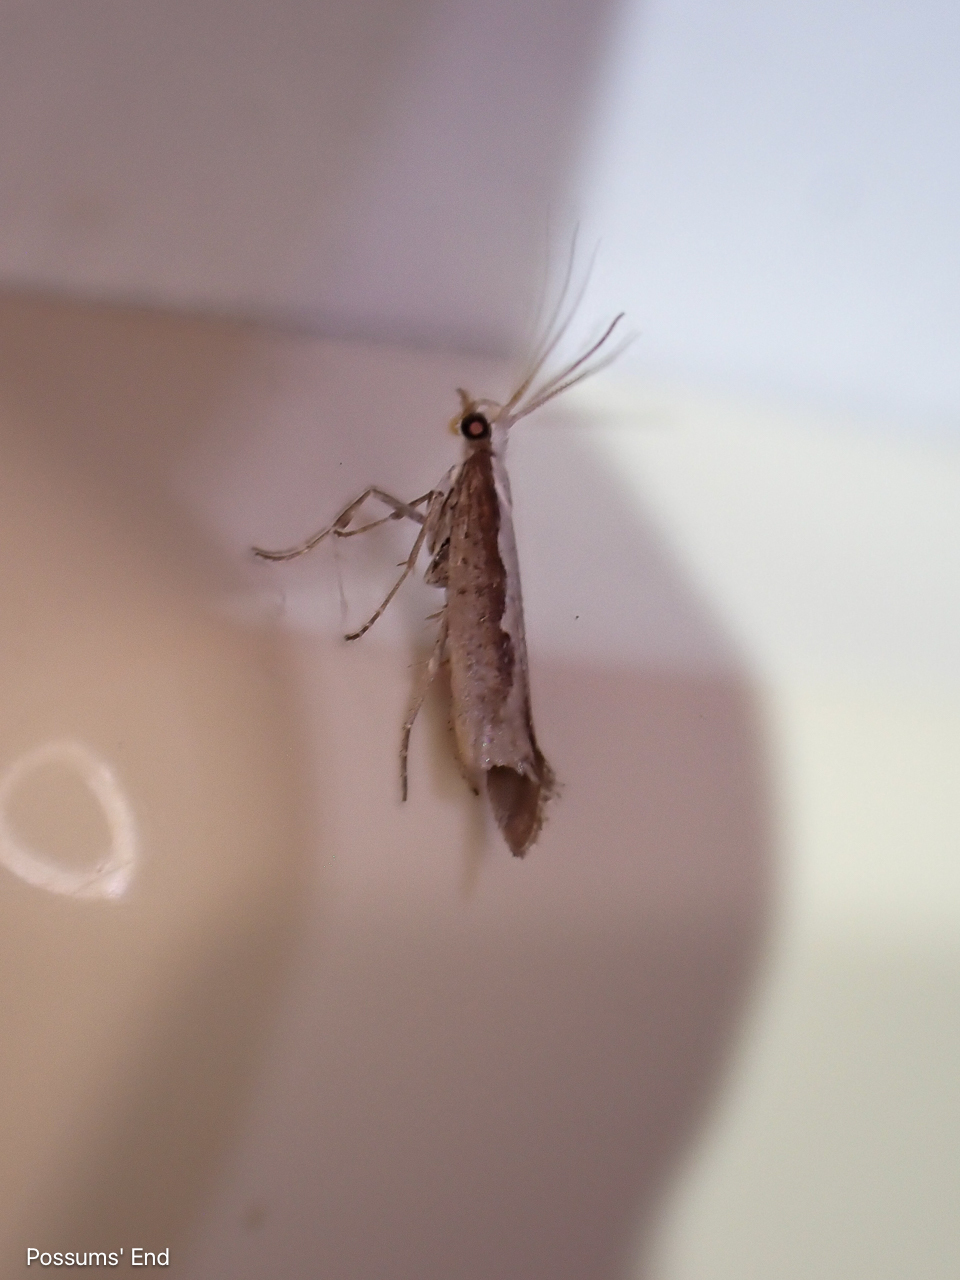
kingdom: Animalia
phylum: Arthropoda
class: Insecta
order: Lepidoptera
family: Plutellidae
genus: Plutella
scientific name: Plutella xylostella
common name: Diamond-back moth
